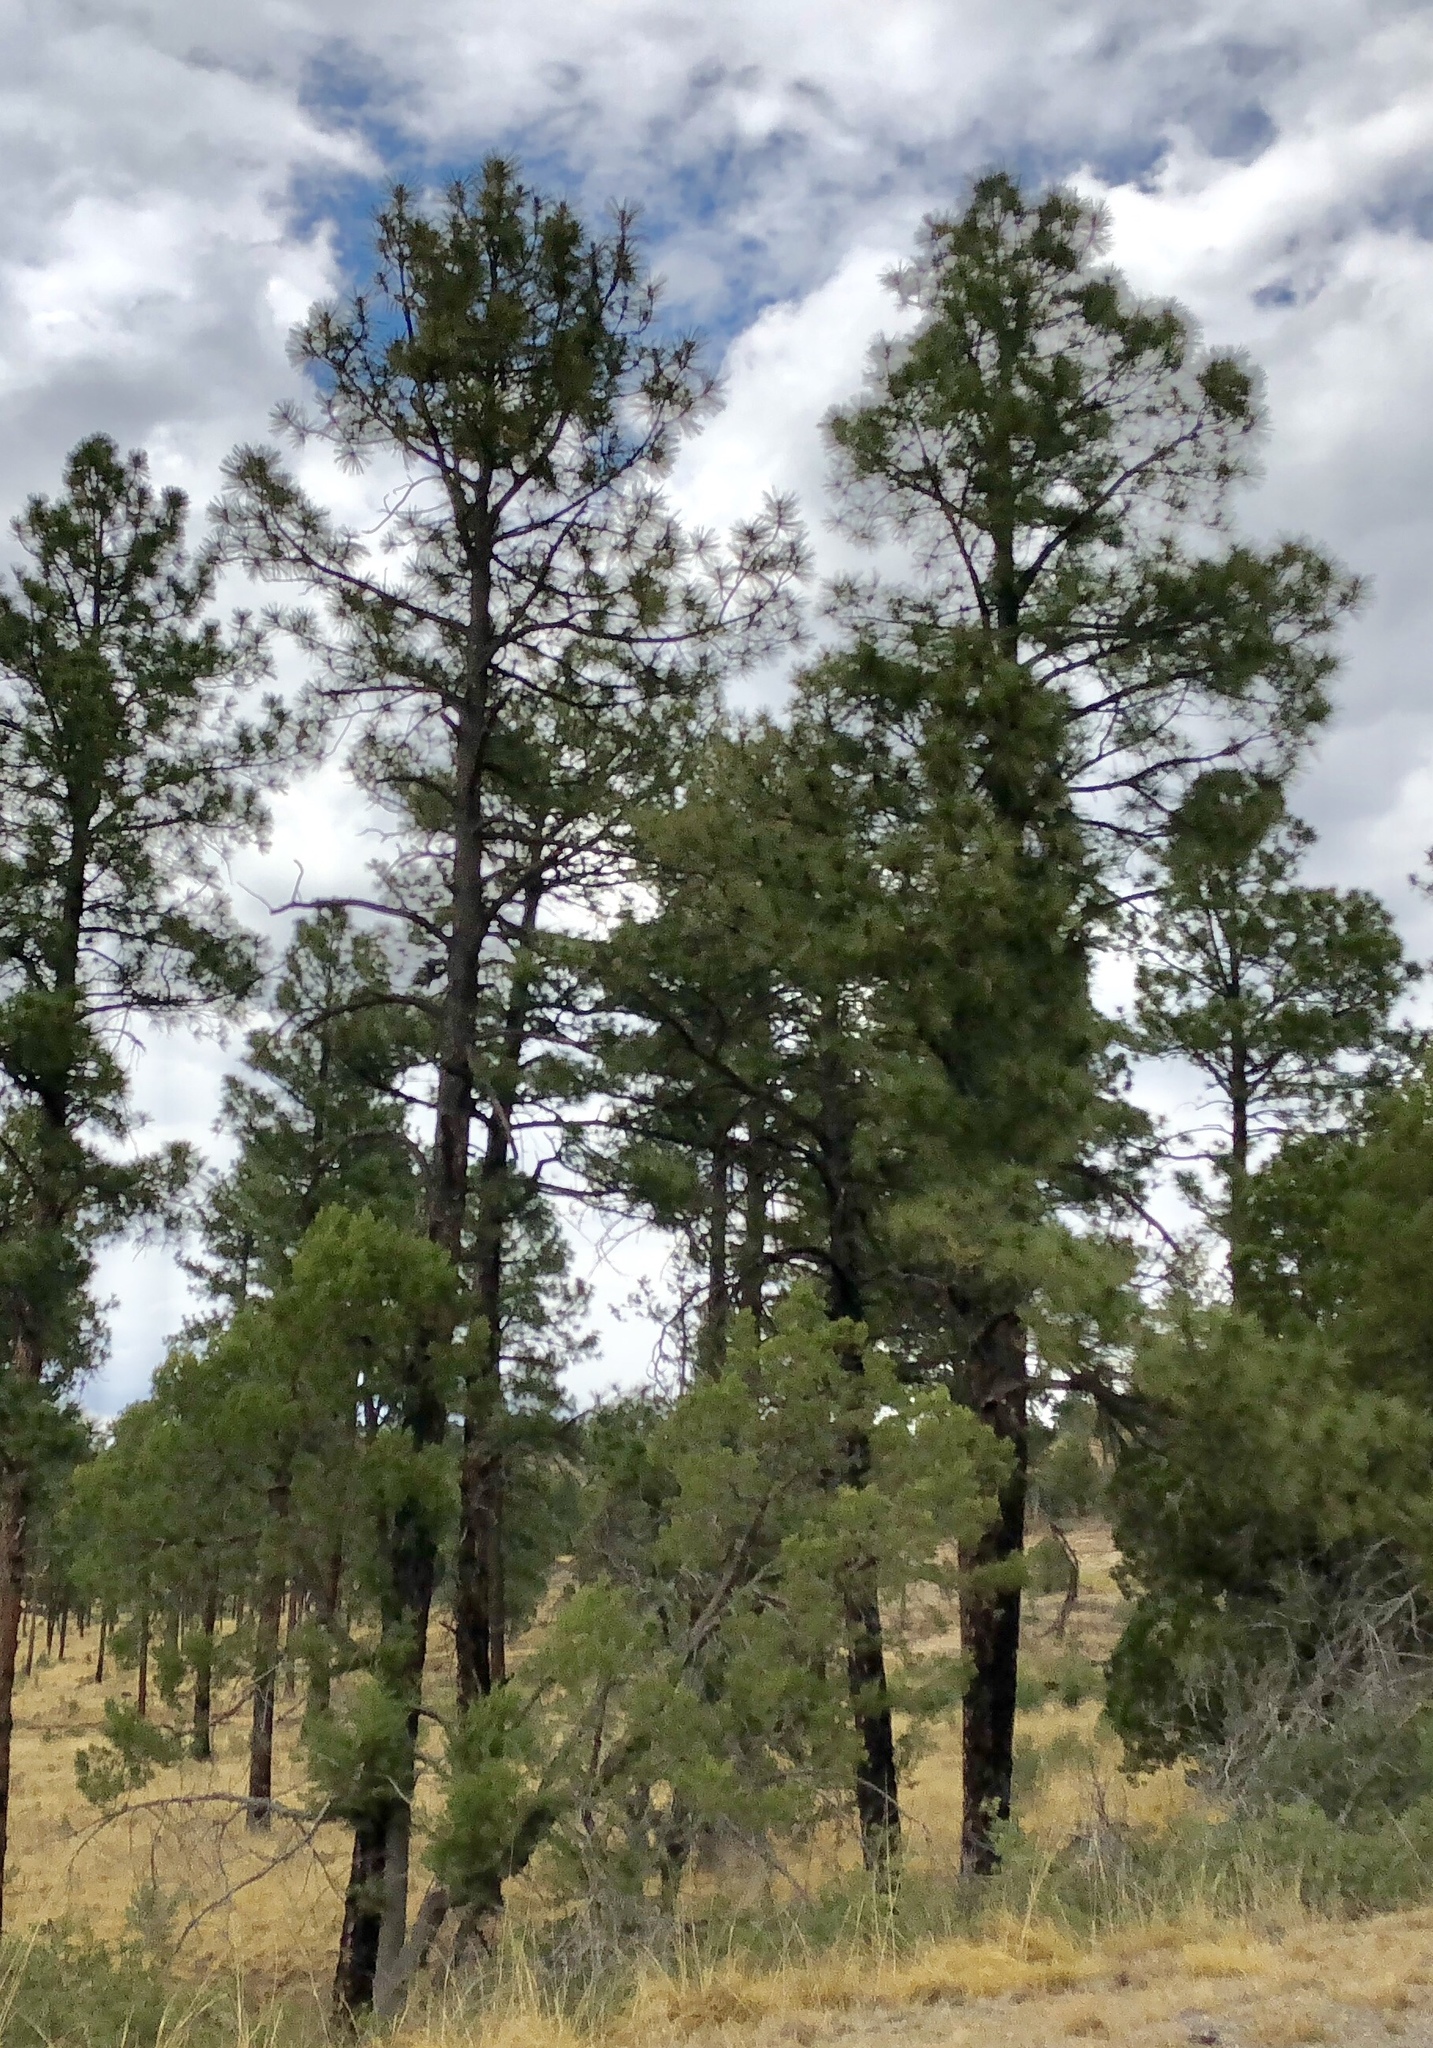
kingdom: Plantae
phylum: Tracheophyta
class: Pinopsida
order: Pinales
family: Pinaceae
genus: Pinus
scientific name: Pinus ponderosa
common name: Western yellow-pine
